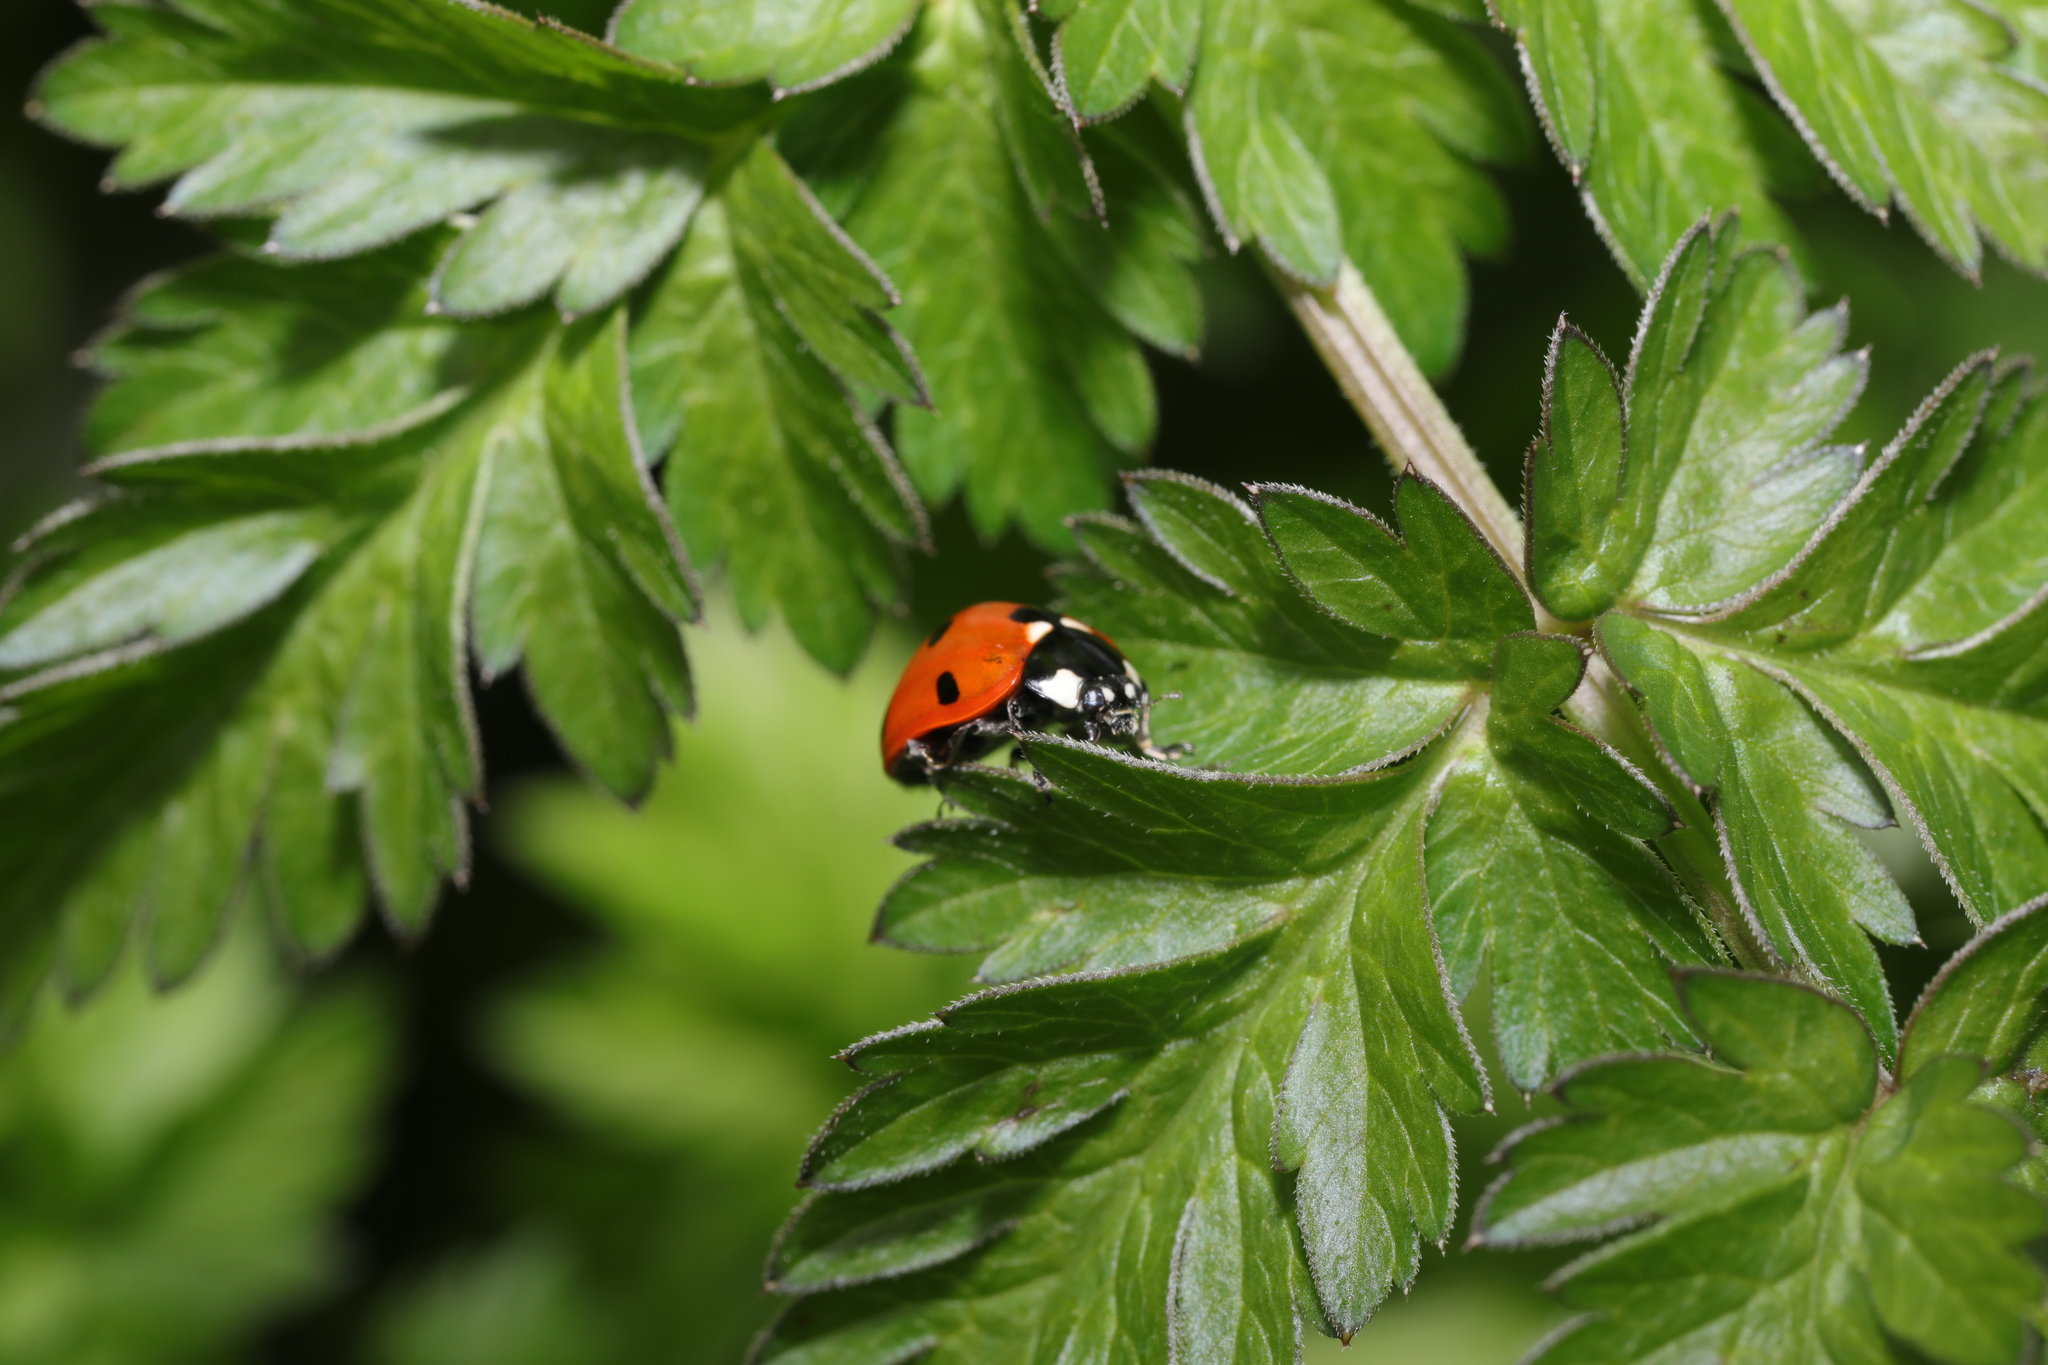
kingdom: Animalia
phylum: Arthropoda
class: Insecta
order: Coleoptera
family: Coccinellidae
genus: Coccinella
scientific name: Coccinella septempunctata
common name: Sevenspotted lady beetle
